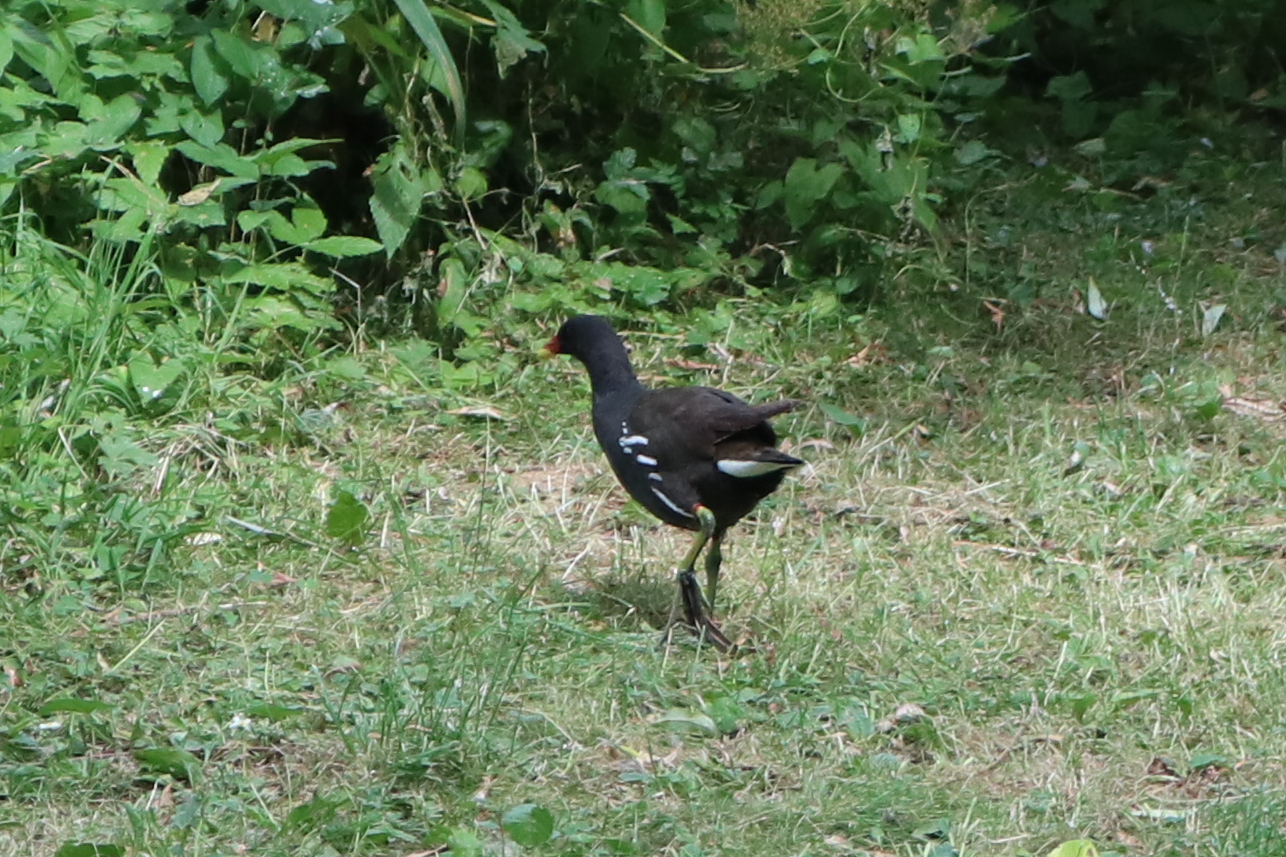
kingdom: Animalia
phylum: Chordata
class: Aves
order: Gruiformes
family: Rallidae
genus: Gallinula
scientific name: Gallinula chloropus
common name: Common moorhen
